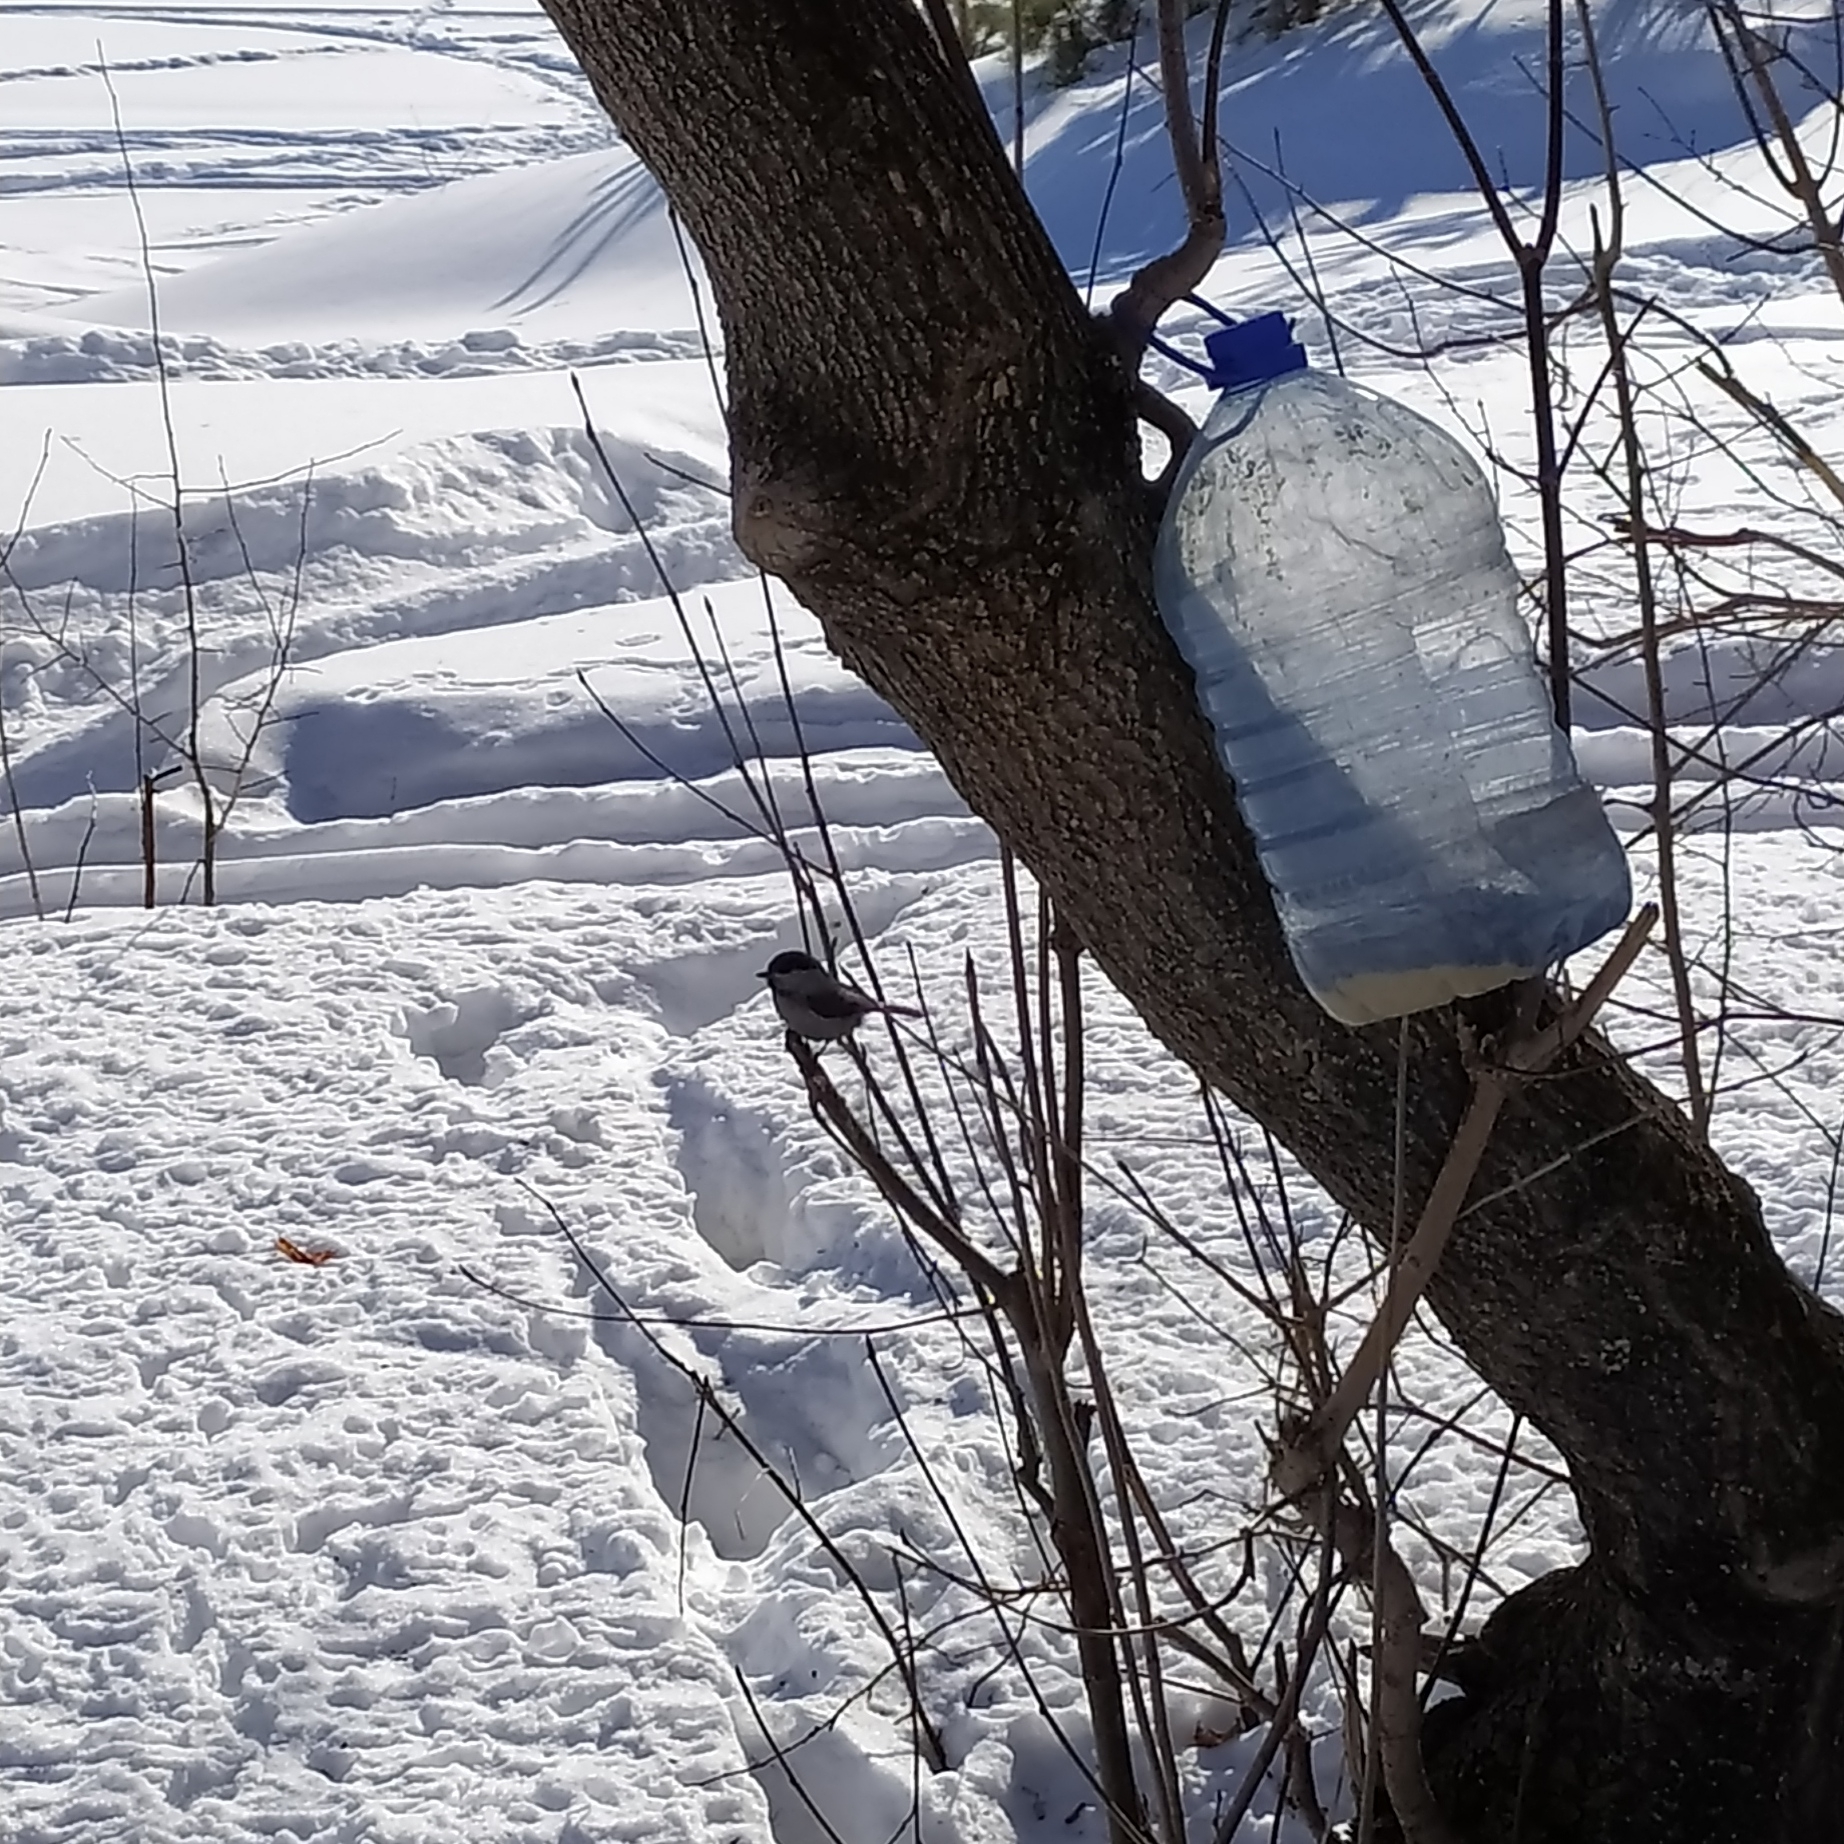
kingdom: Animalia
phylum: Chordata
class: Aves
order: Passeriformes
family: Paridae
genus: Poecile
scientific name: Poecile montanus
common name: Willow tit
